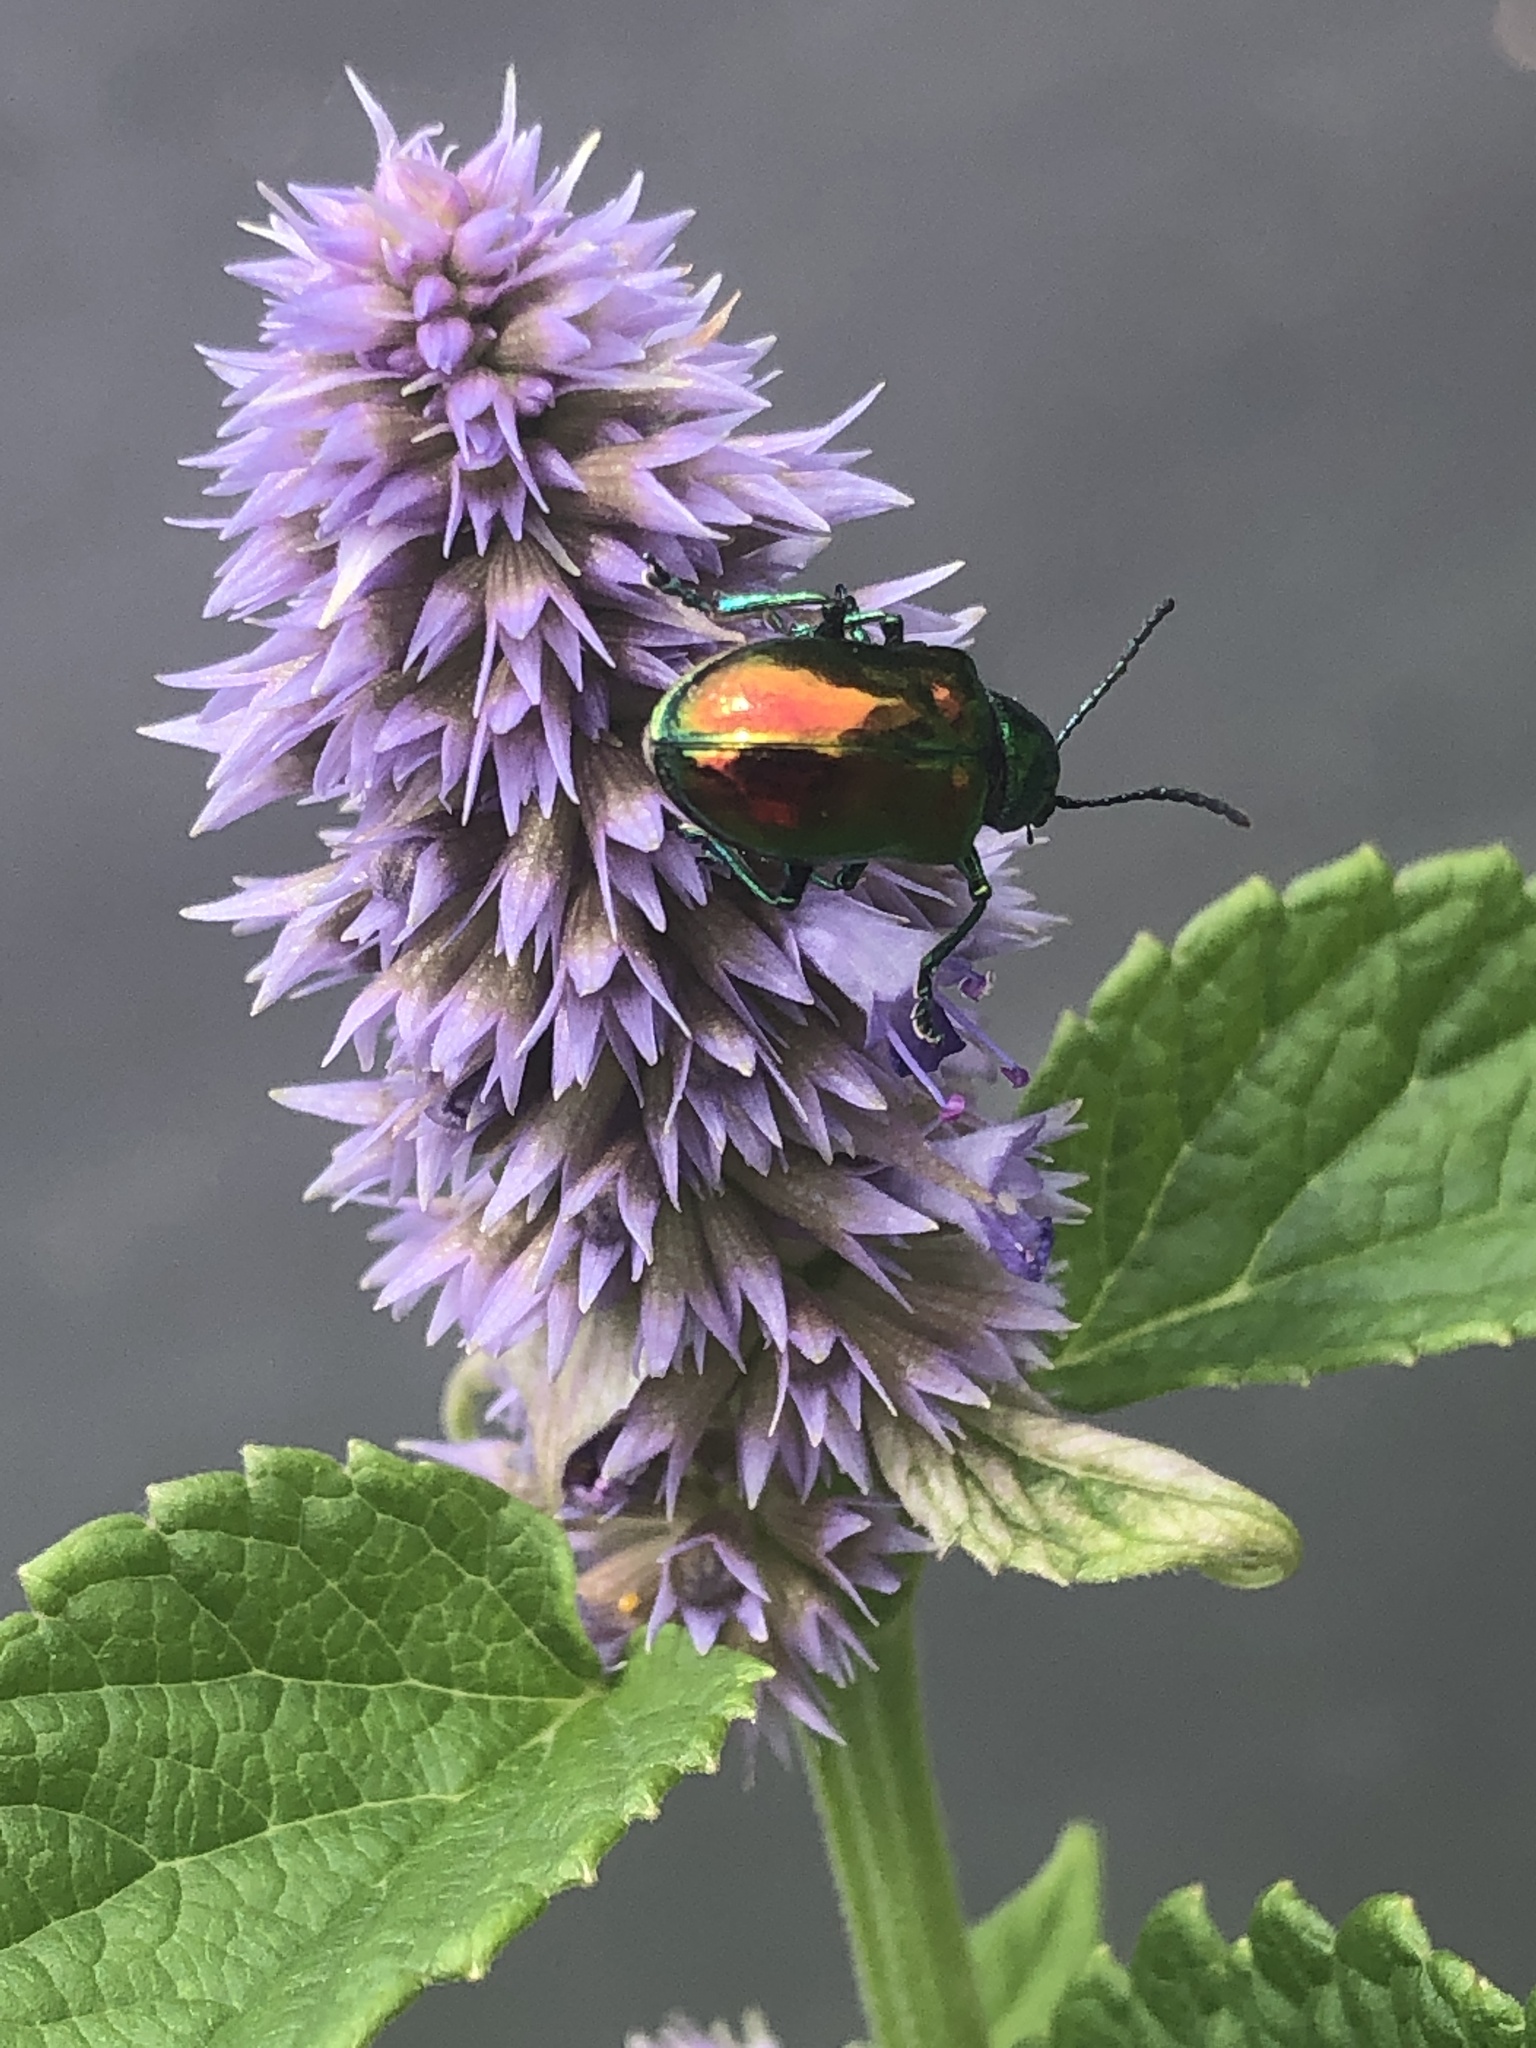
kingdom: Animalia
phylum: Arthropoda
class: Insecta
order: Coleoptera
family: Chrysomelidae
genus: Chrysochus
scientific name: Chrysochus auratus
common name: Dogbane leaf beetle
